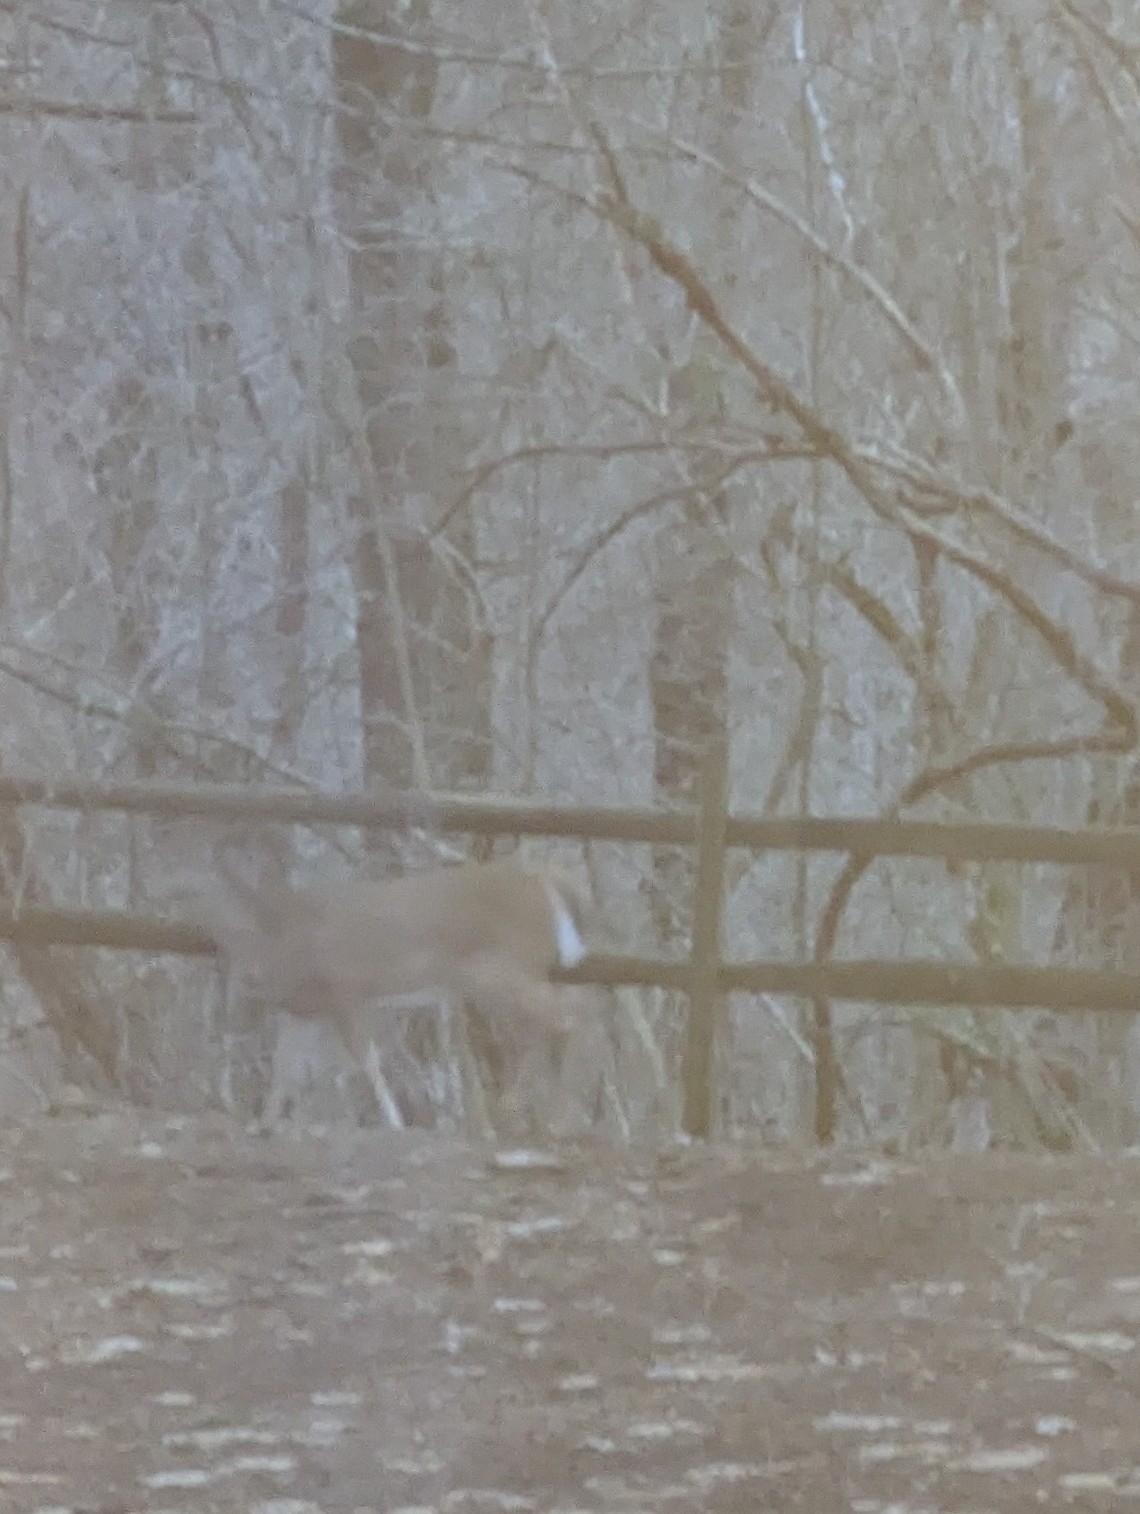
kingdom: Animalia
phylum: Chordata
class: Mammalia
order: Artiodactyla
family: Cervidae
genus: Odocoileus
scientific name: Odocoileus virginianus
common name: White-tailed deer
